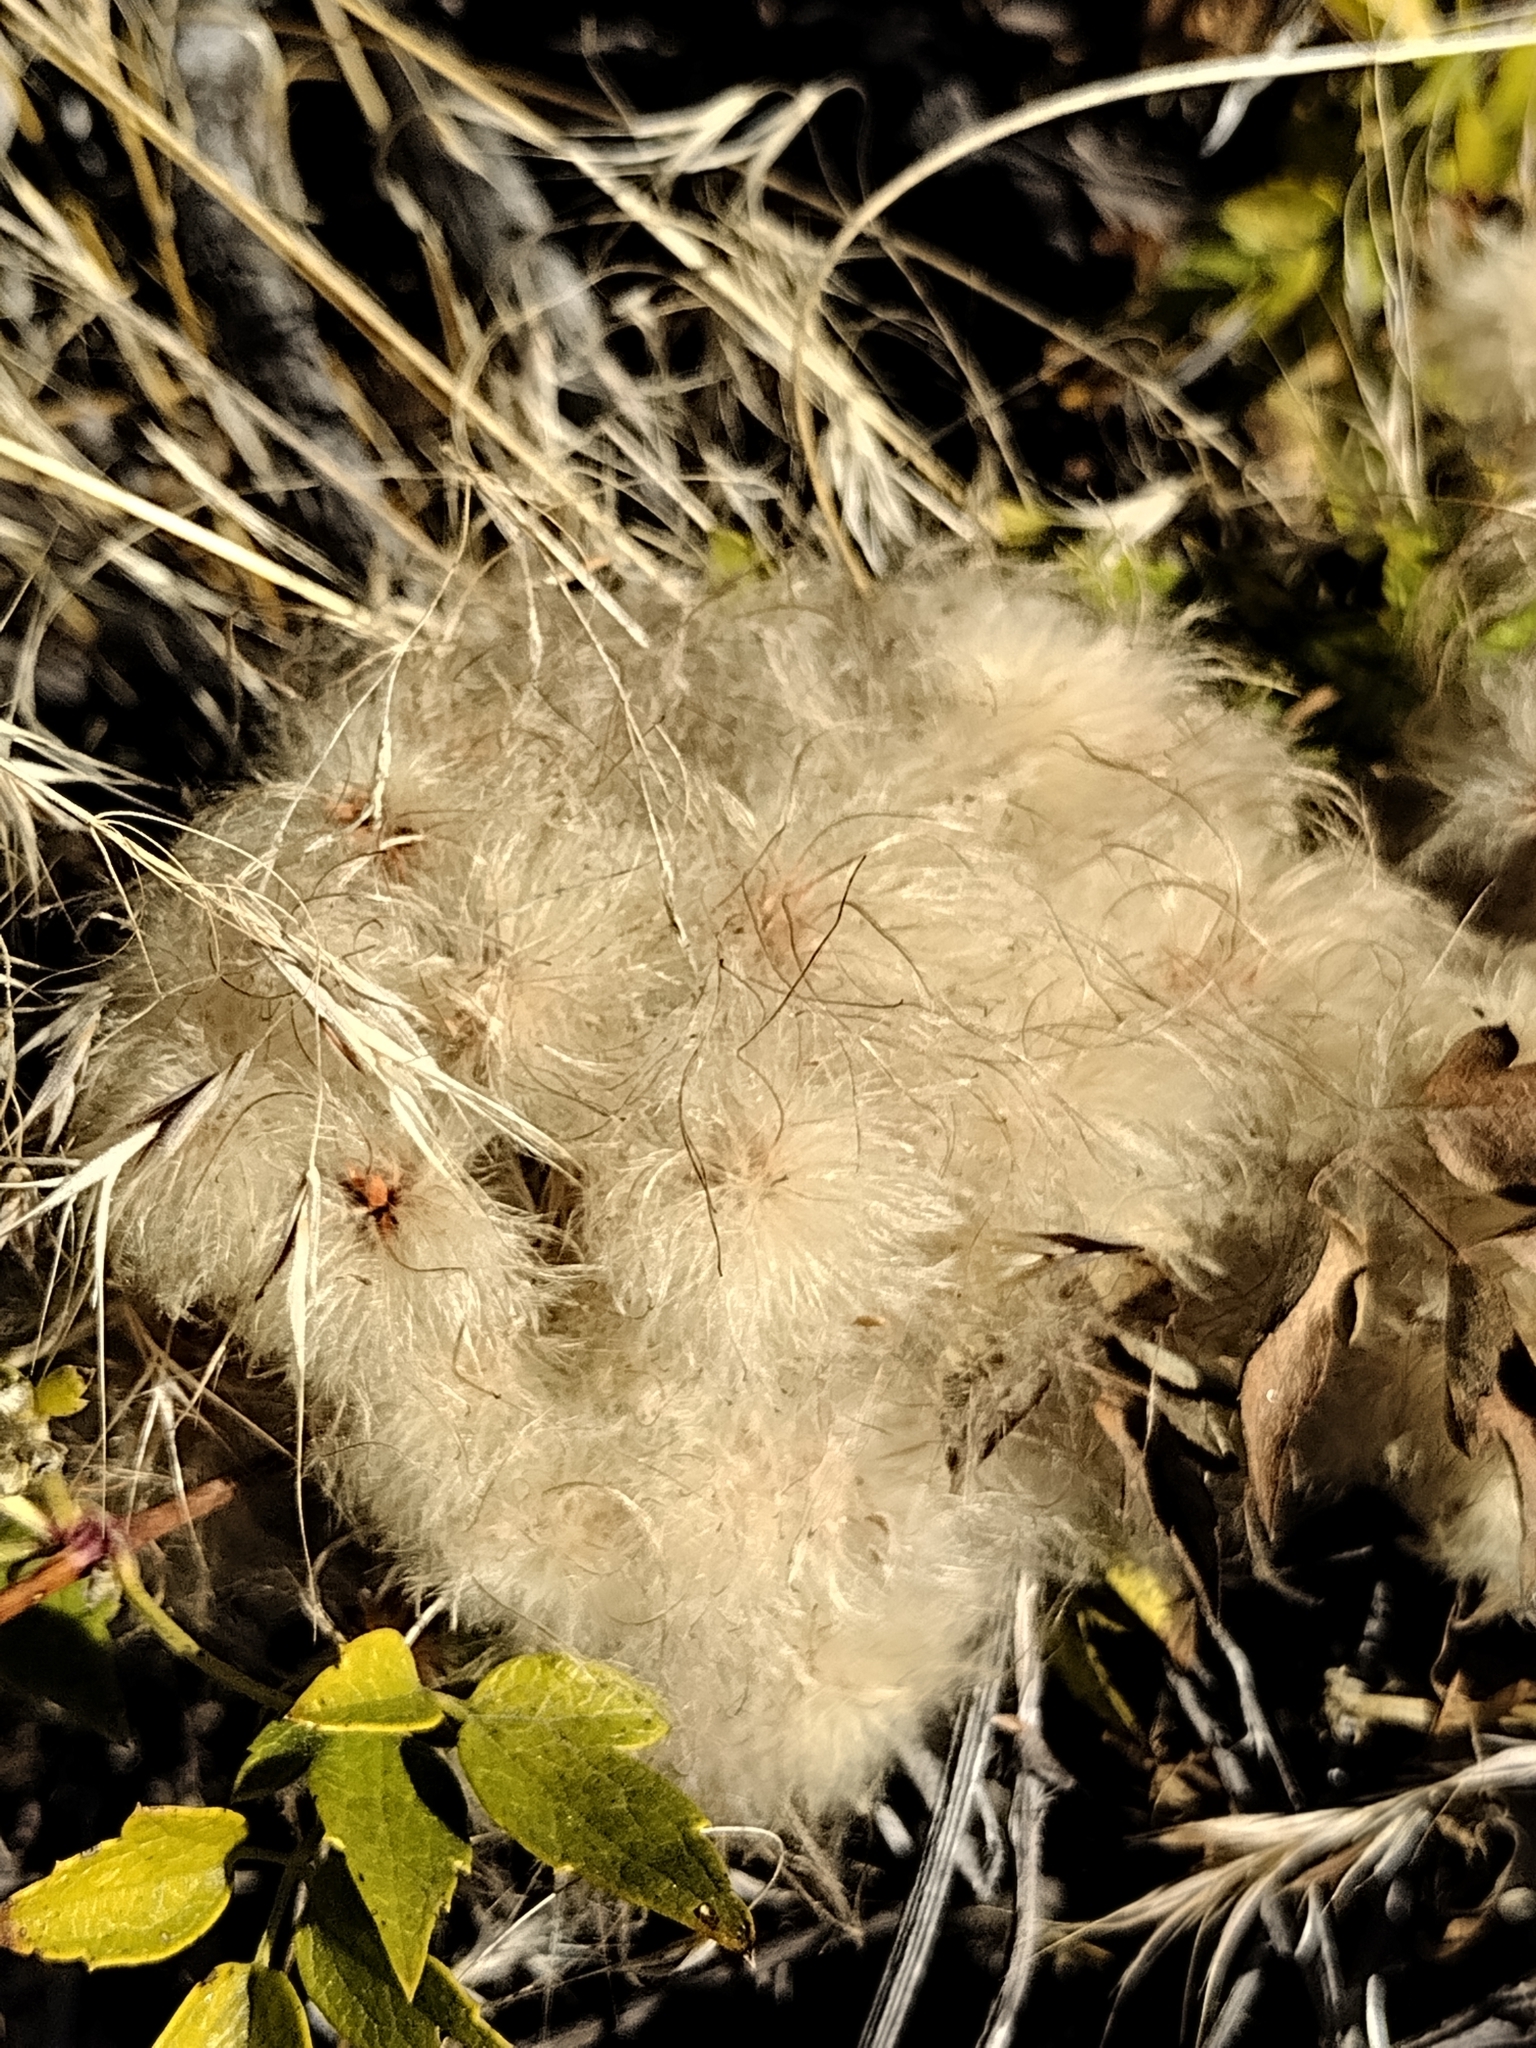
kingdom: Plantae
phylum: Tracheophyta
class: Magnoliopsida
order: Ranunculales
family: Ranunculaceae
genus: Clematis
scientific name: Clematis ligusticifolia
